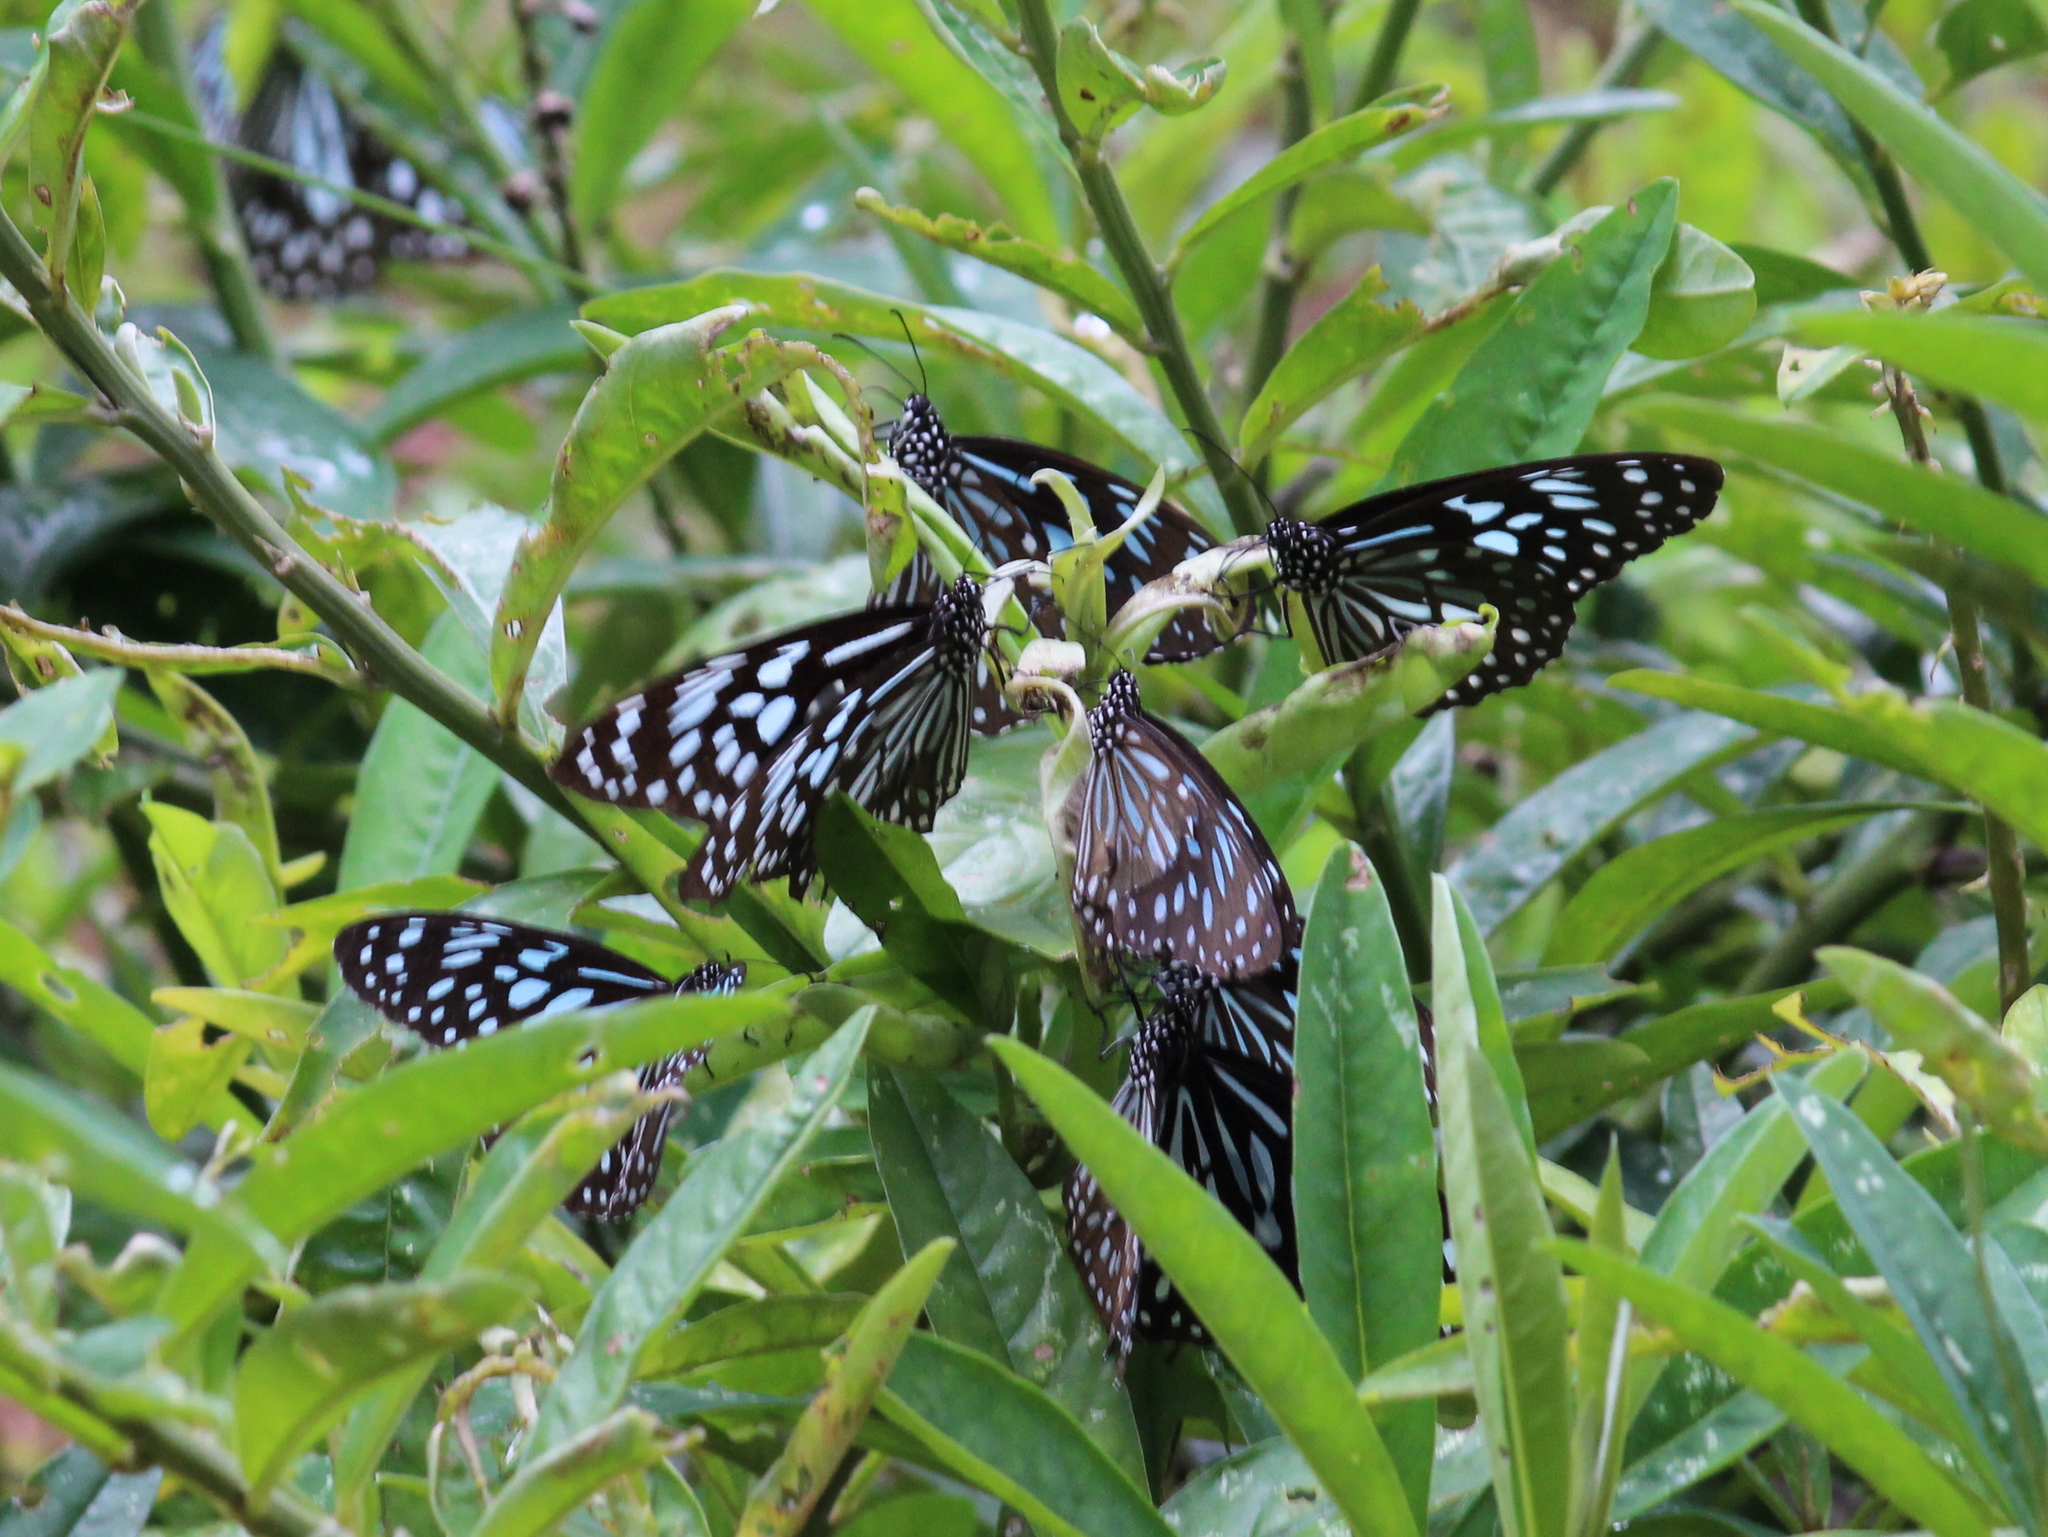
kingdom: Animalia
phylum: Arthropoda
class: Insecta
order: Lepidoptera
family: Nymphalidae
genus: Tirumala
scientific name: Tirumala septentrionis
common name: Dark blue tiger butterfly
